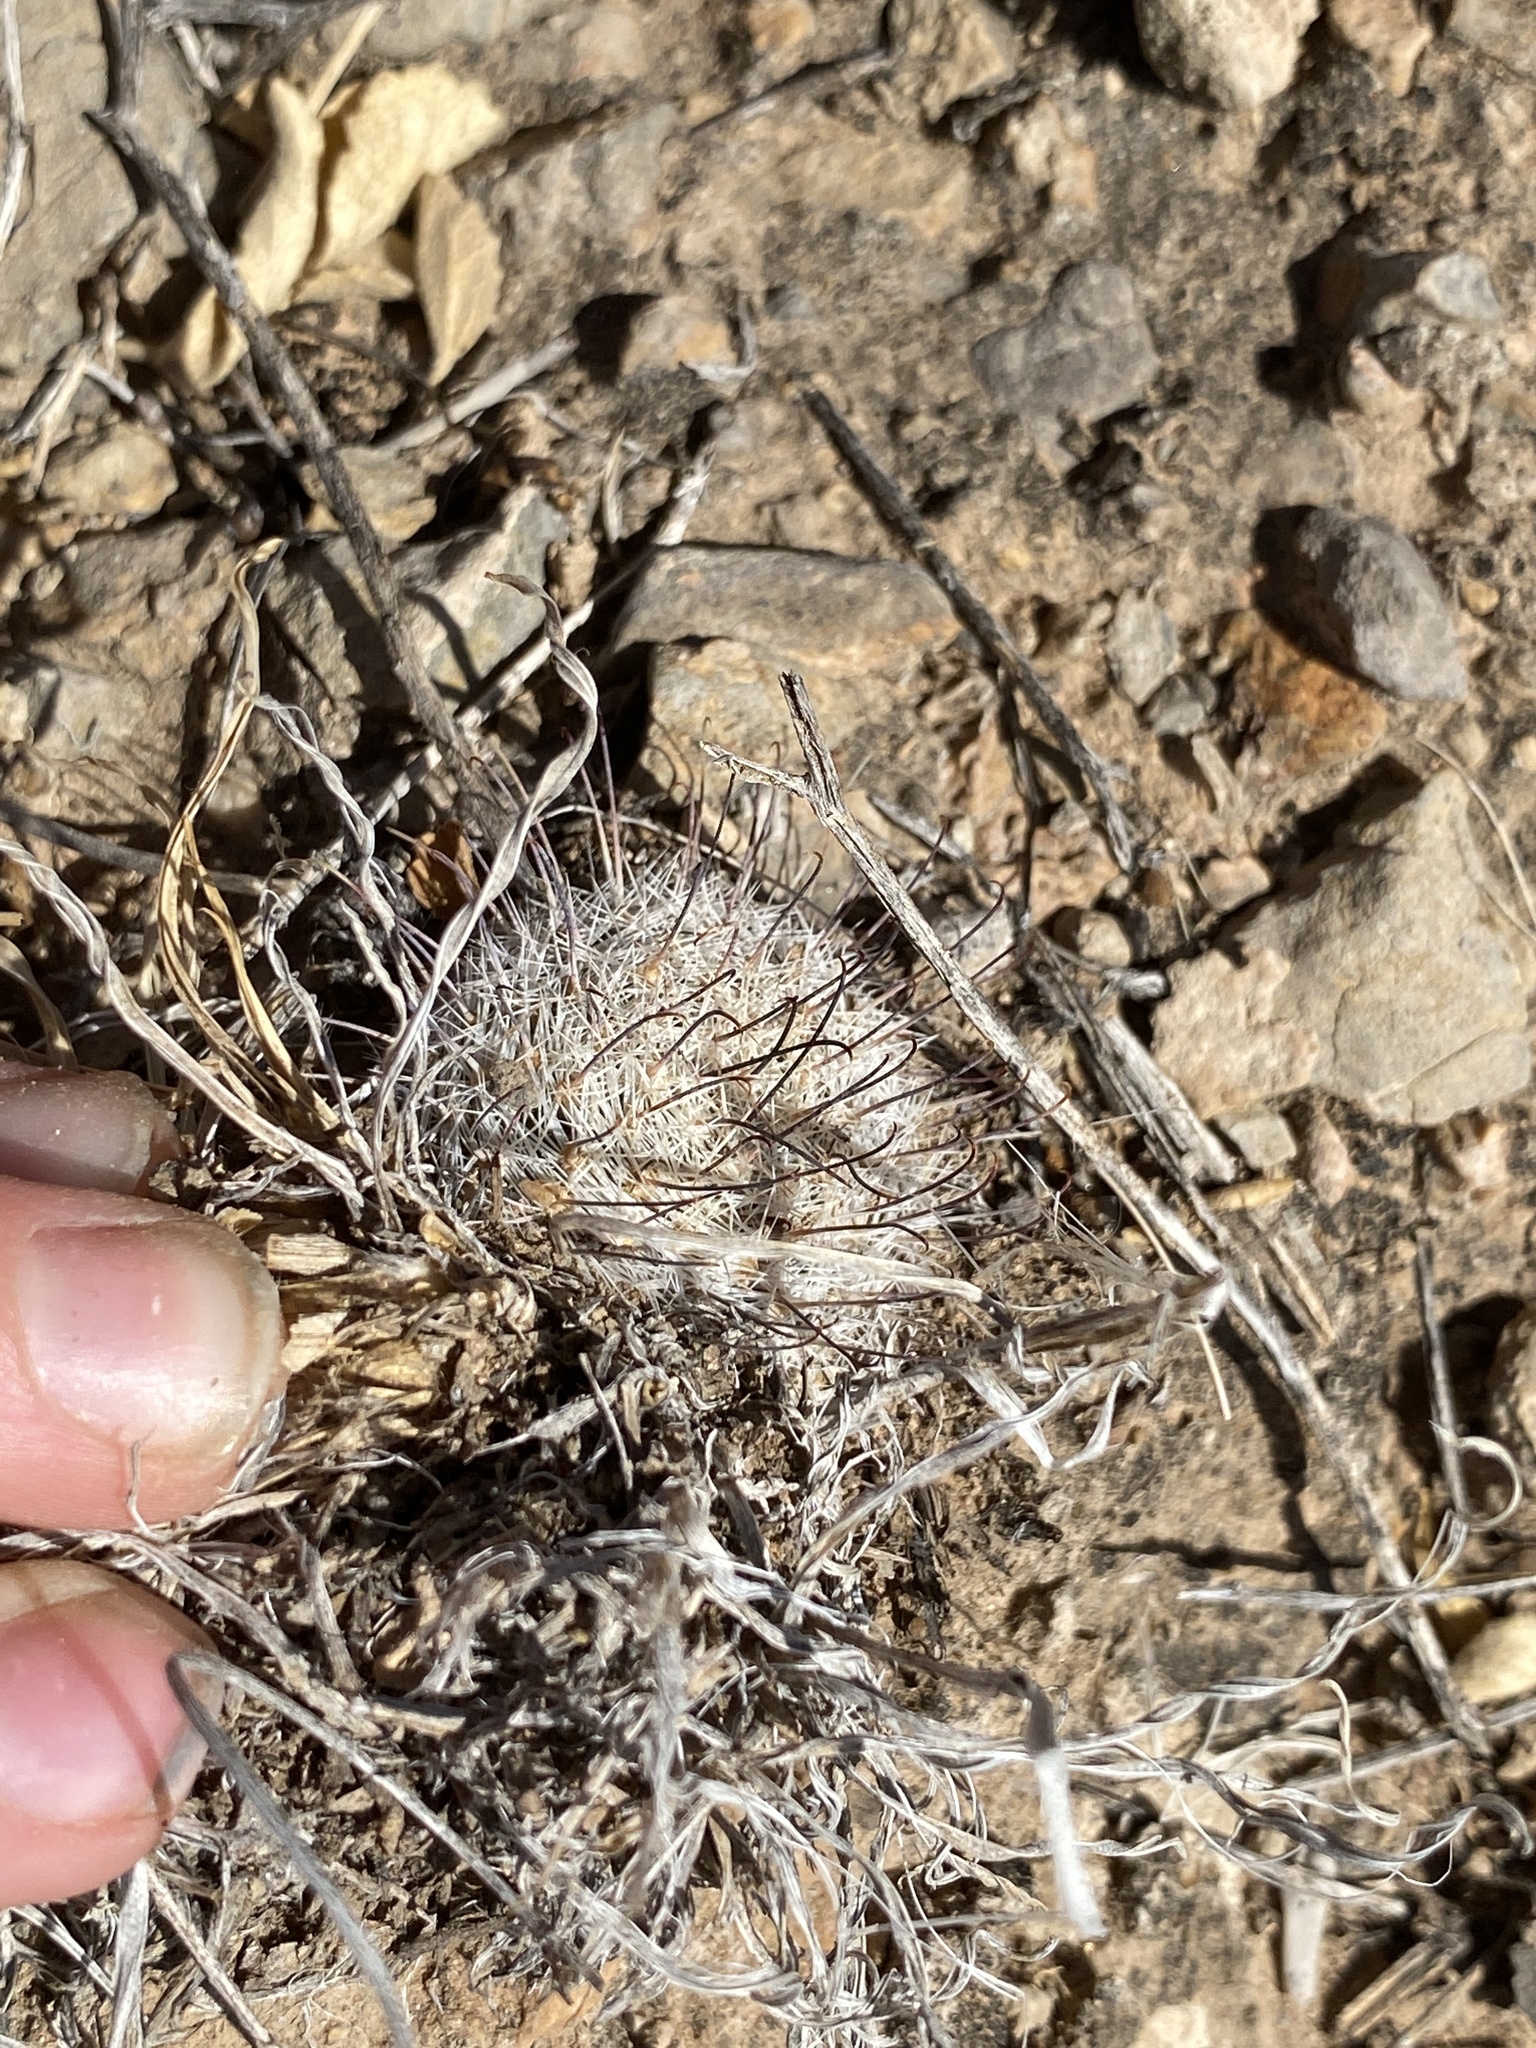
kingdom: Plantae
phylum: Tracheophyta
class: Magnoliopsida
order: Caryophyllales
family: Cactaceae
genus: Cochemiea
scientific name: Cochemiea grahamii
